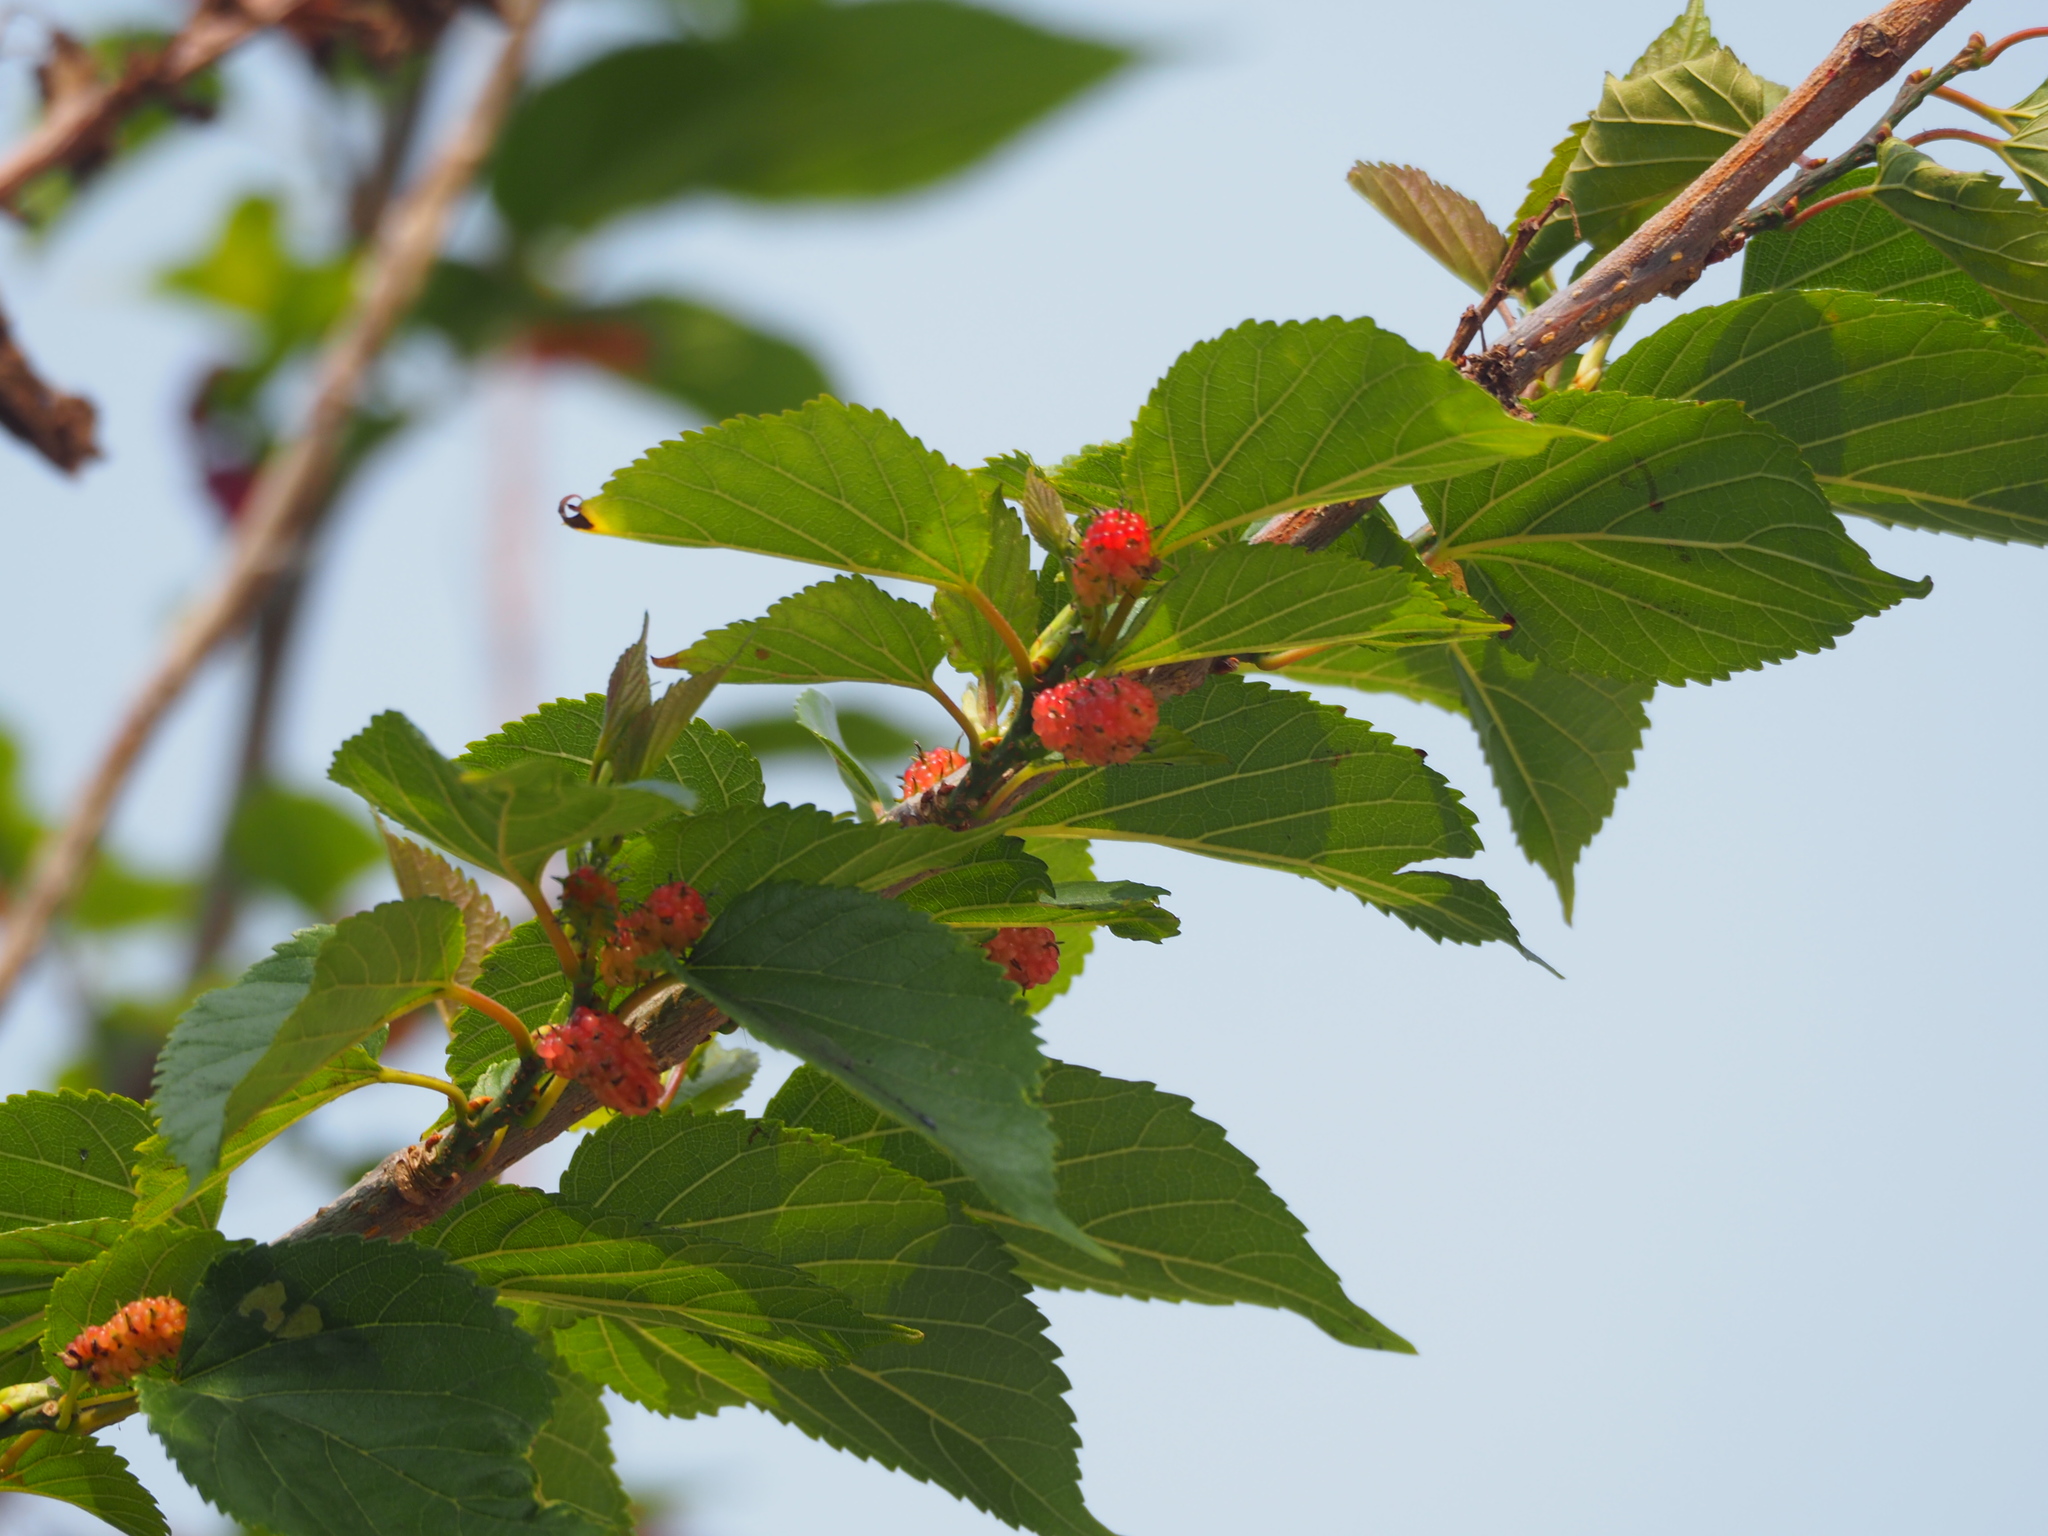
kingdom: Plantae
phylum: Tracheophyta
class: Magnoliopsida
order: Rosales
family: Moraceae
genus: Morus
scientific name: Morus indica
